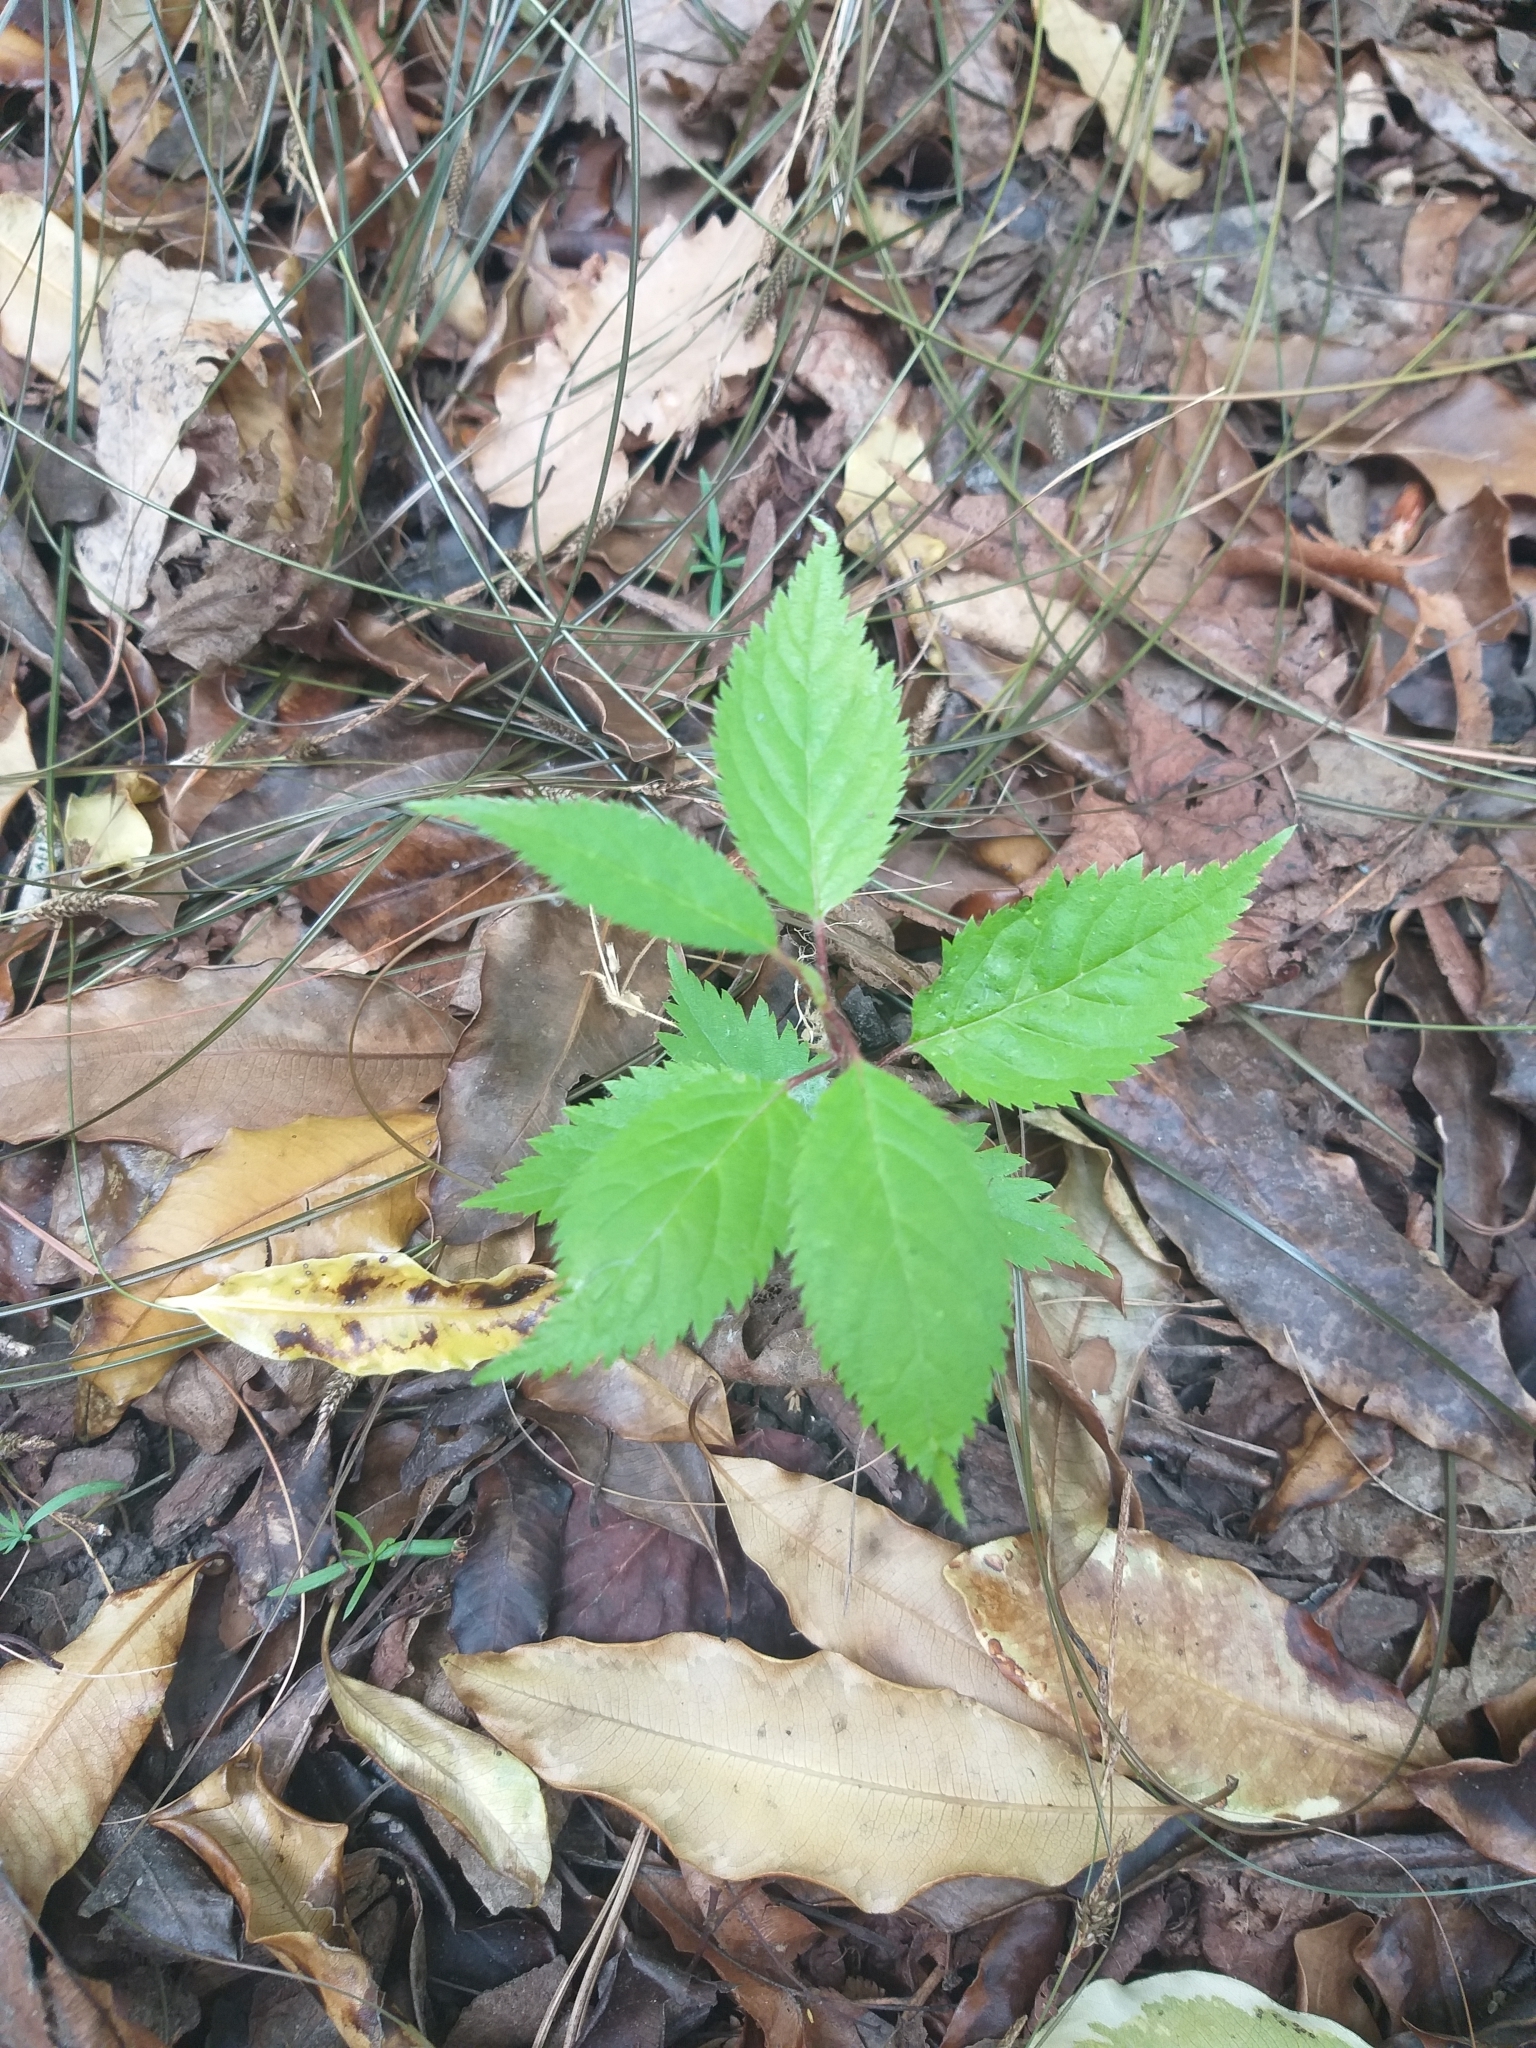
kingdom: Plantae
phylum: Tracheophyta
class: Magnoliopsida
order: Rosales
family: Rosaceae
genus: Prunus
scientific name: Prunus avium
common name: Sweet cherry
